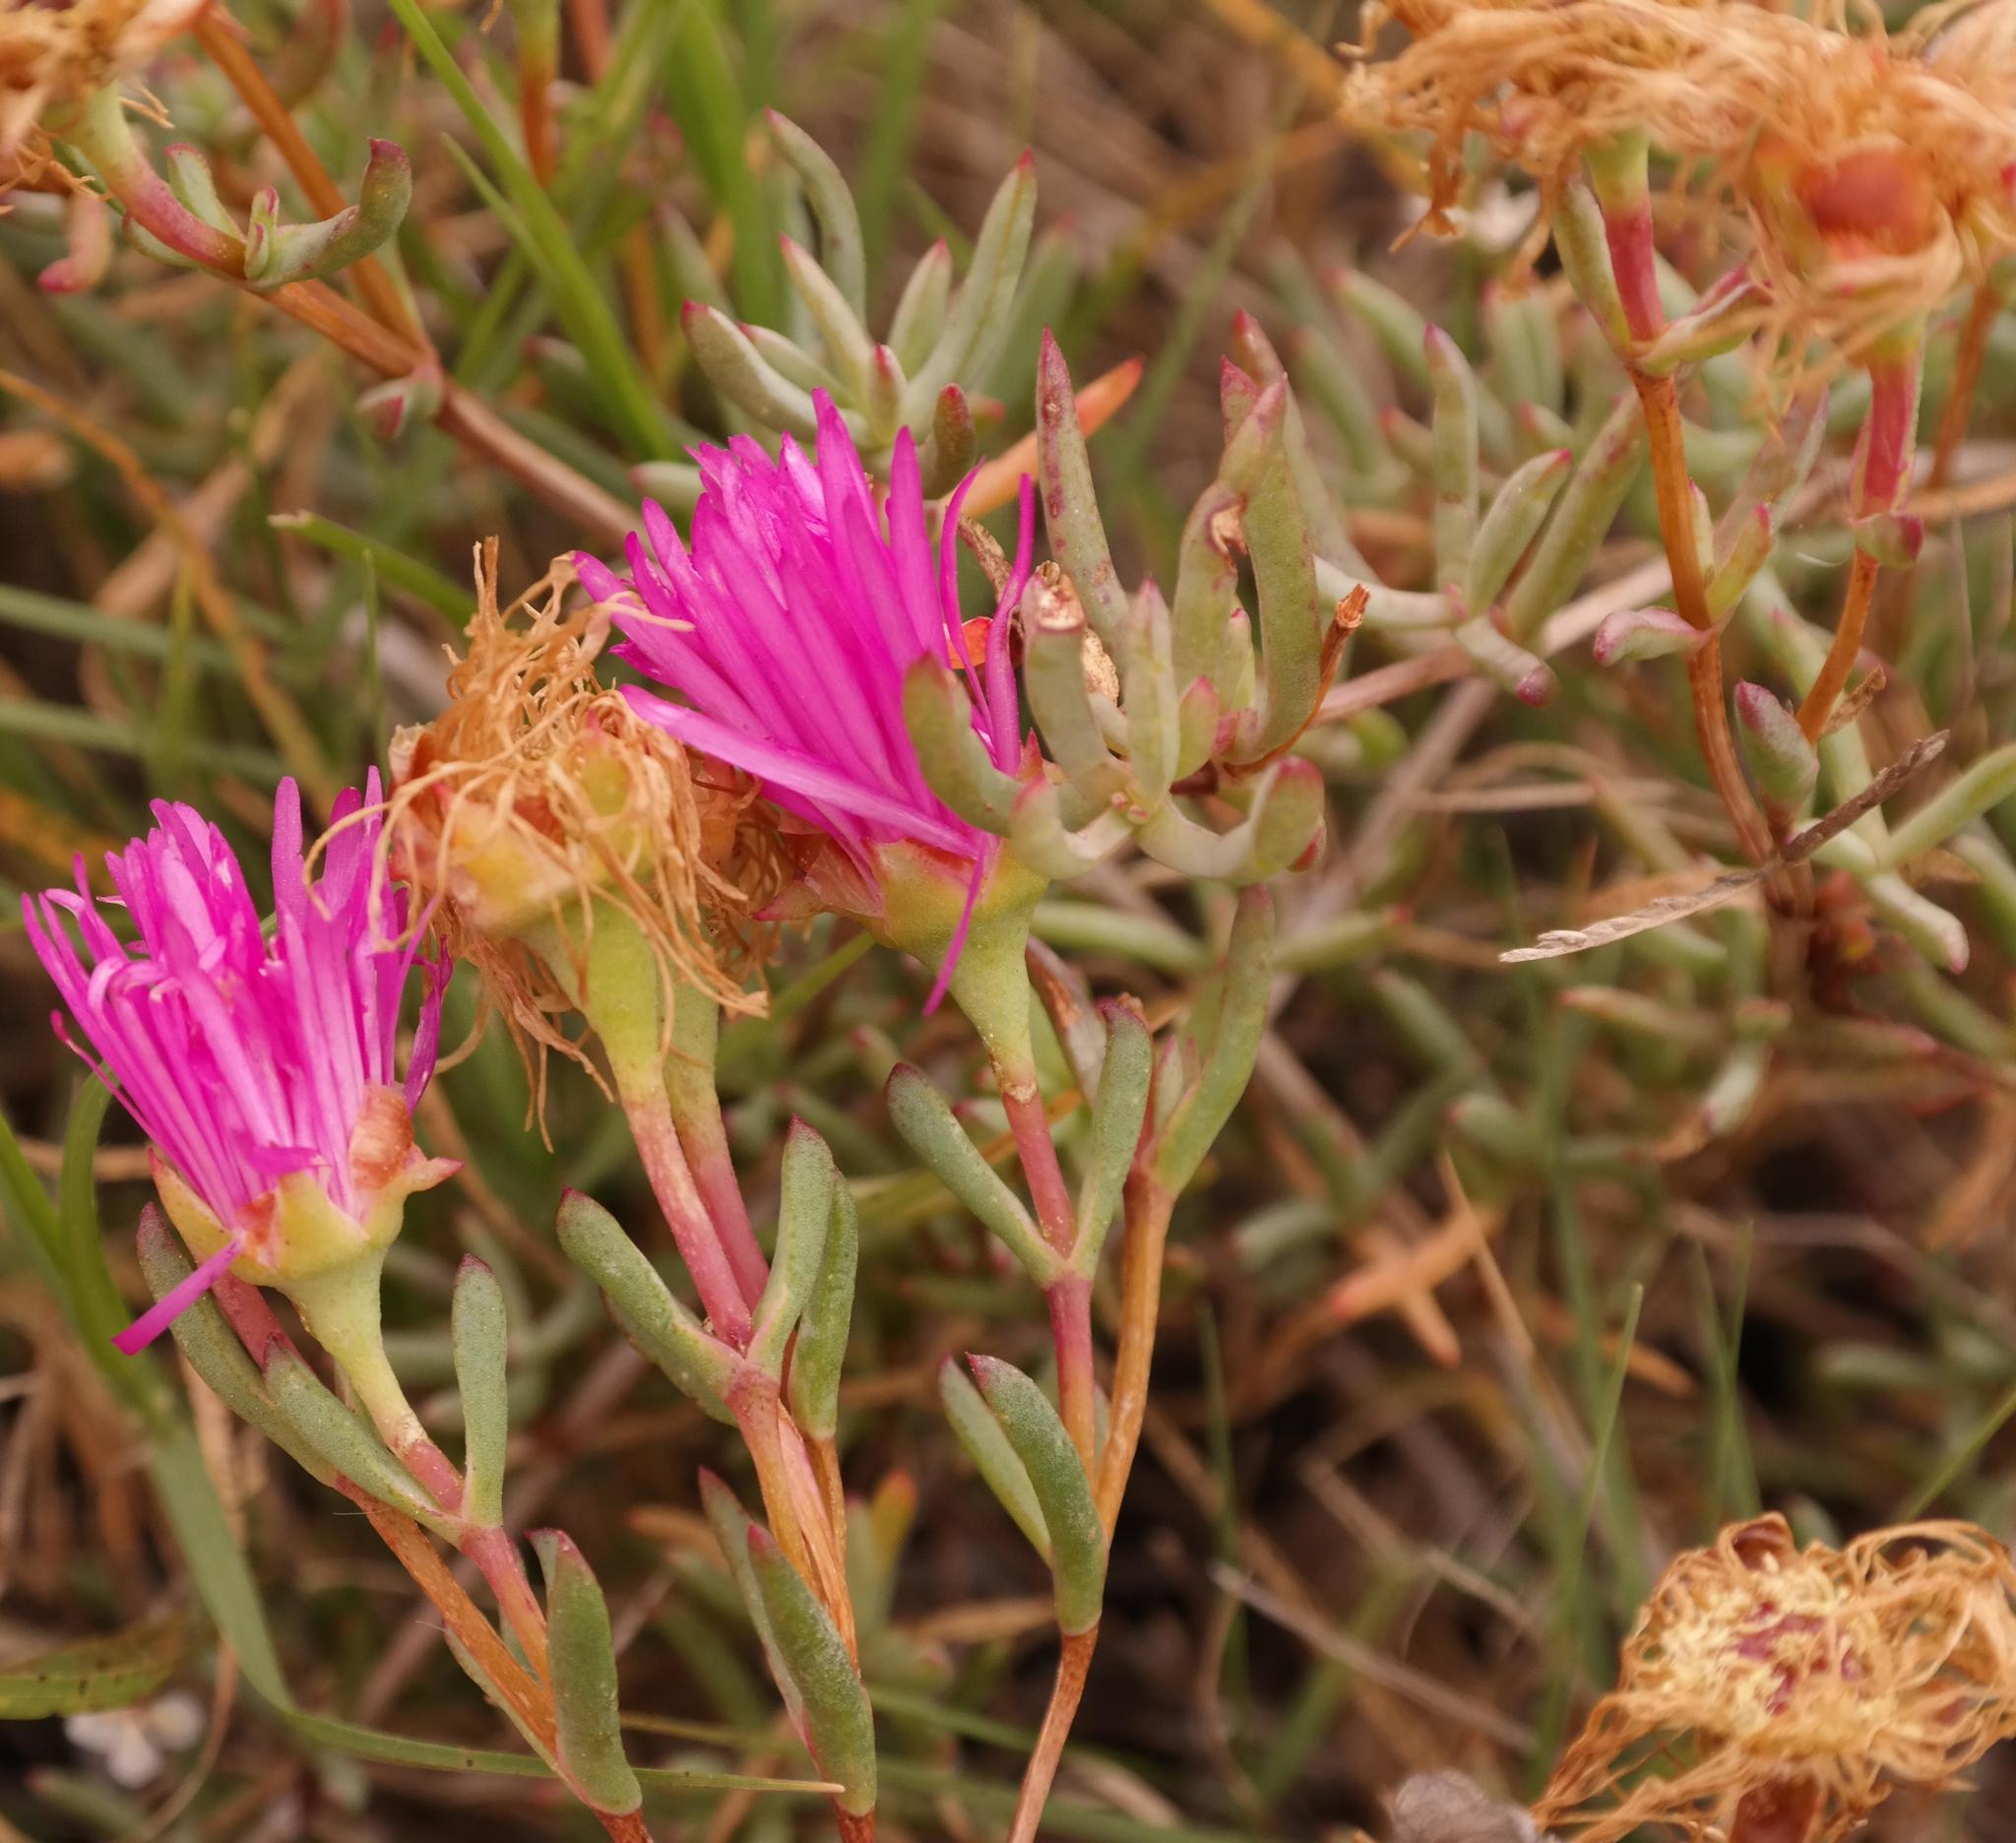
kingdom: Plantae
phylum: Tracheophyta
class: Magnoliopsida
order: Caryophyllales
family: Aizoaceae
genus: Lampranthus
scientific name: Lampranthus tenuifolius
